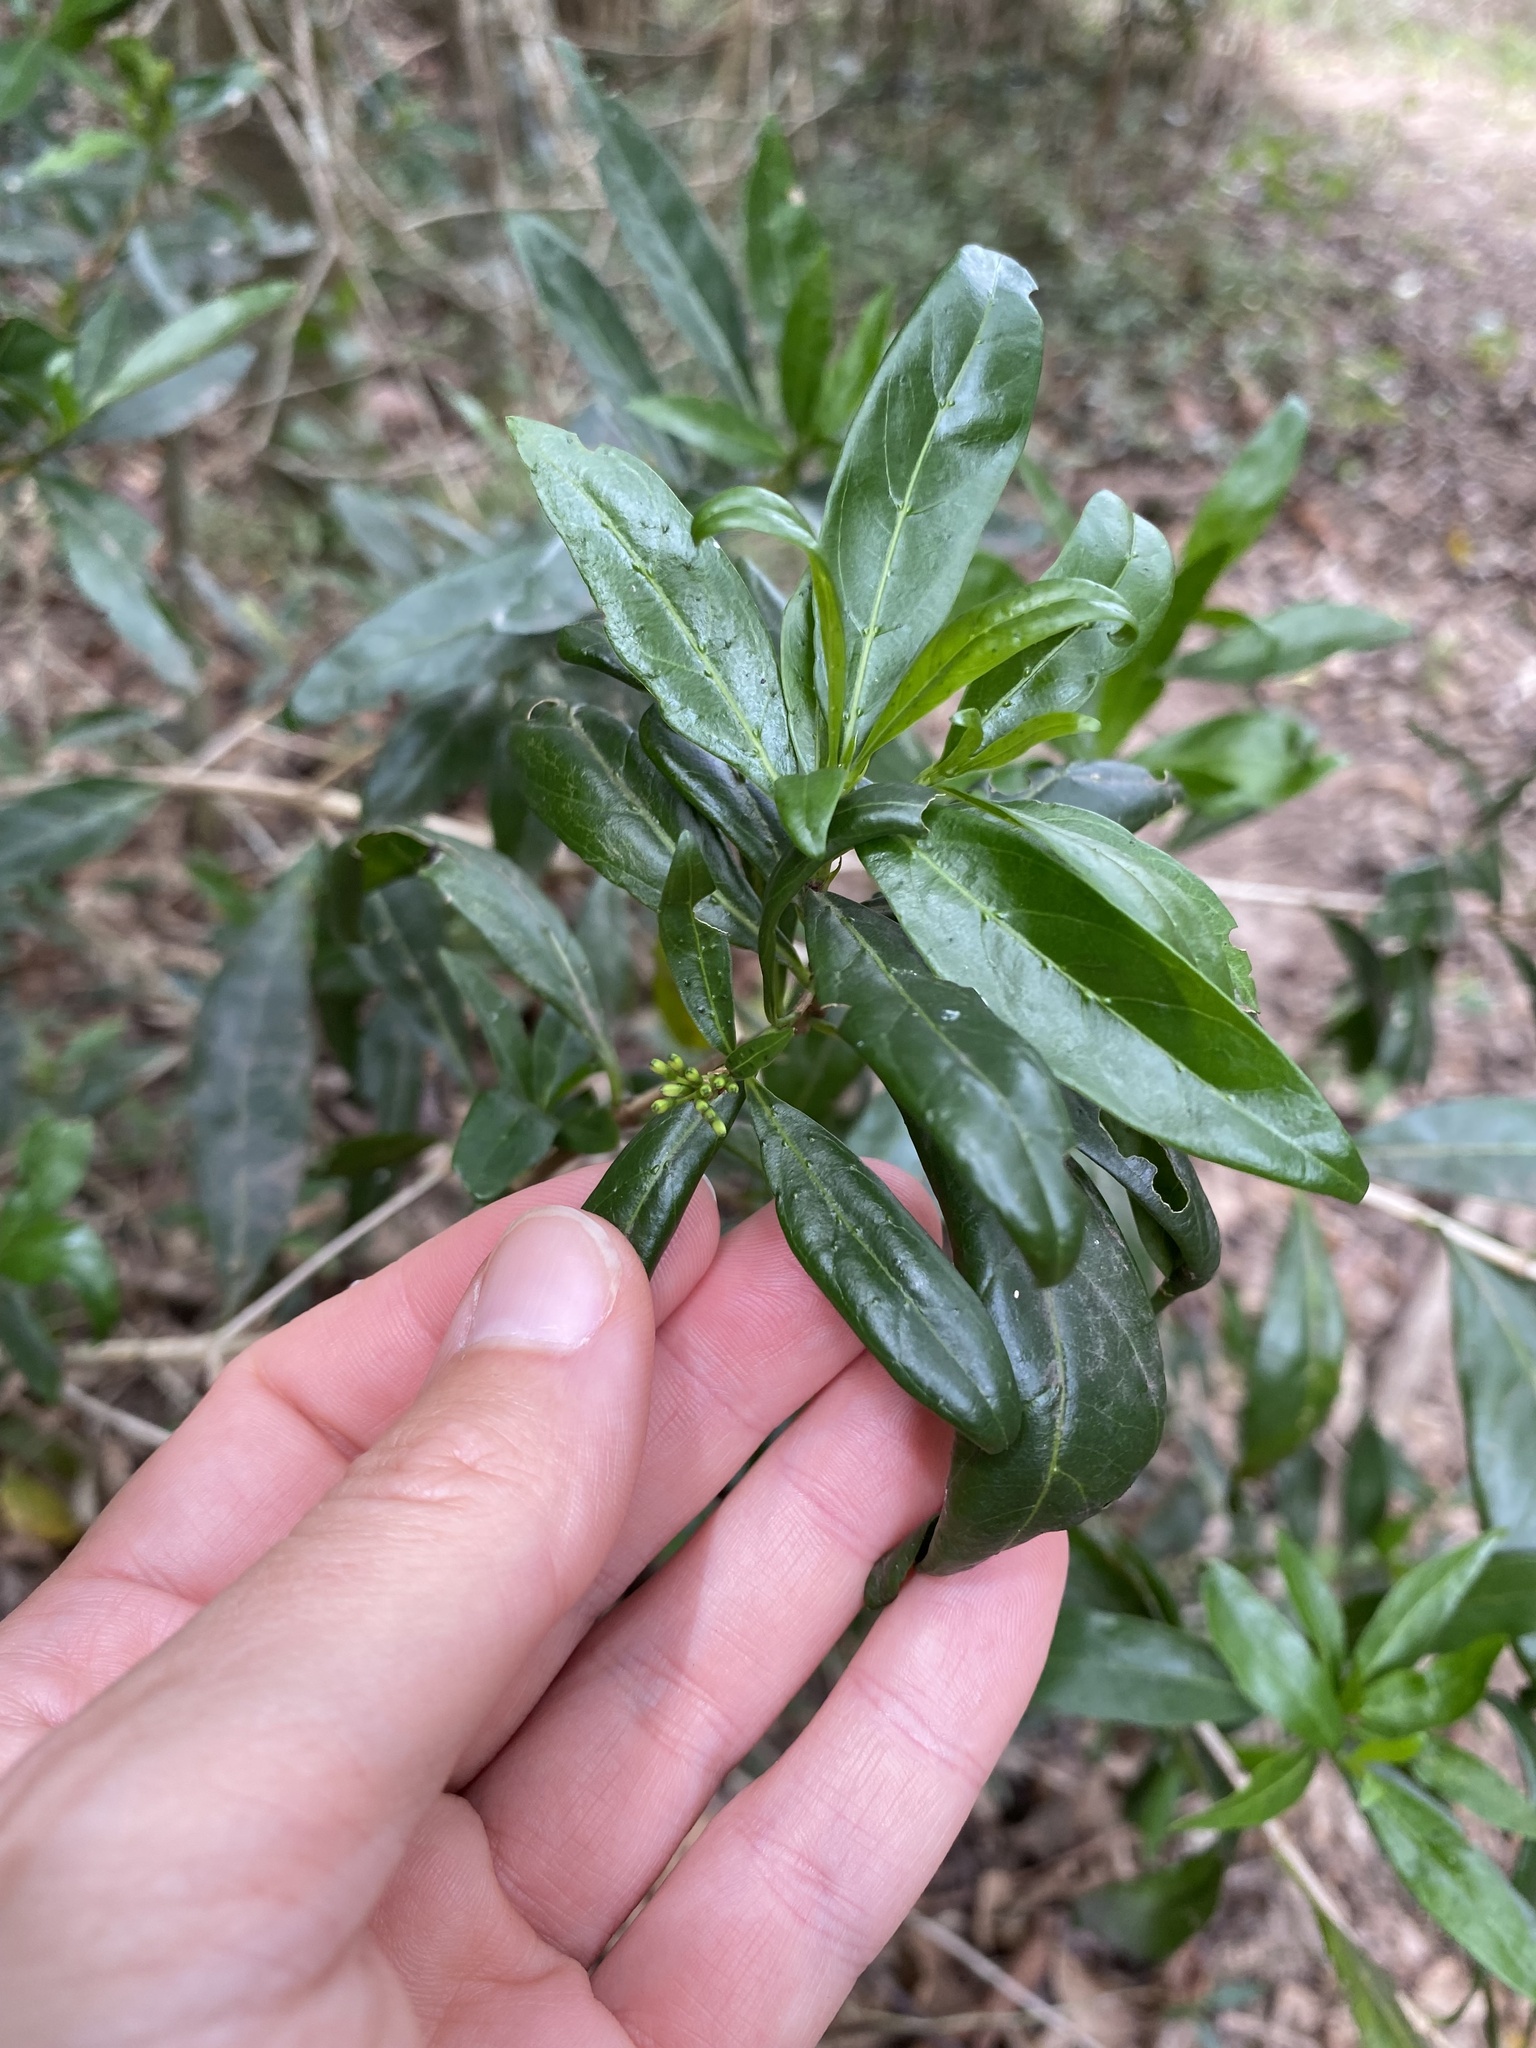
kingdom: Plantae
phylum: Tracheophyta
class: Magnoliopsida
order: Gentianales
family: Rubiaceae
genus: Pavetta
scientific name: Pavetta lanceolata
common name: Weeping brides-bush
